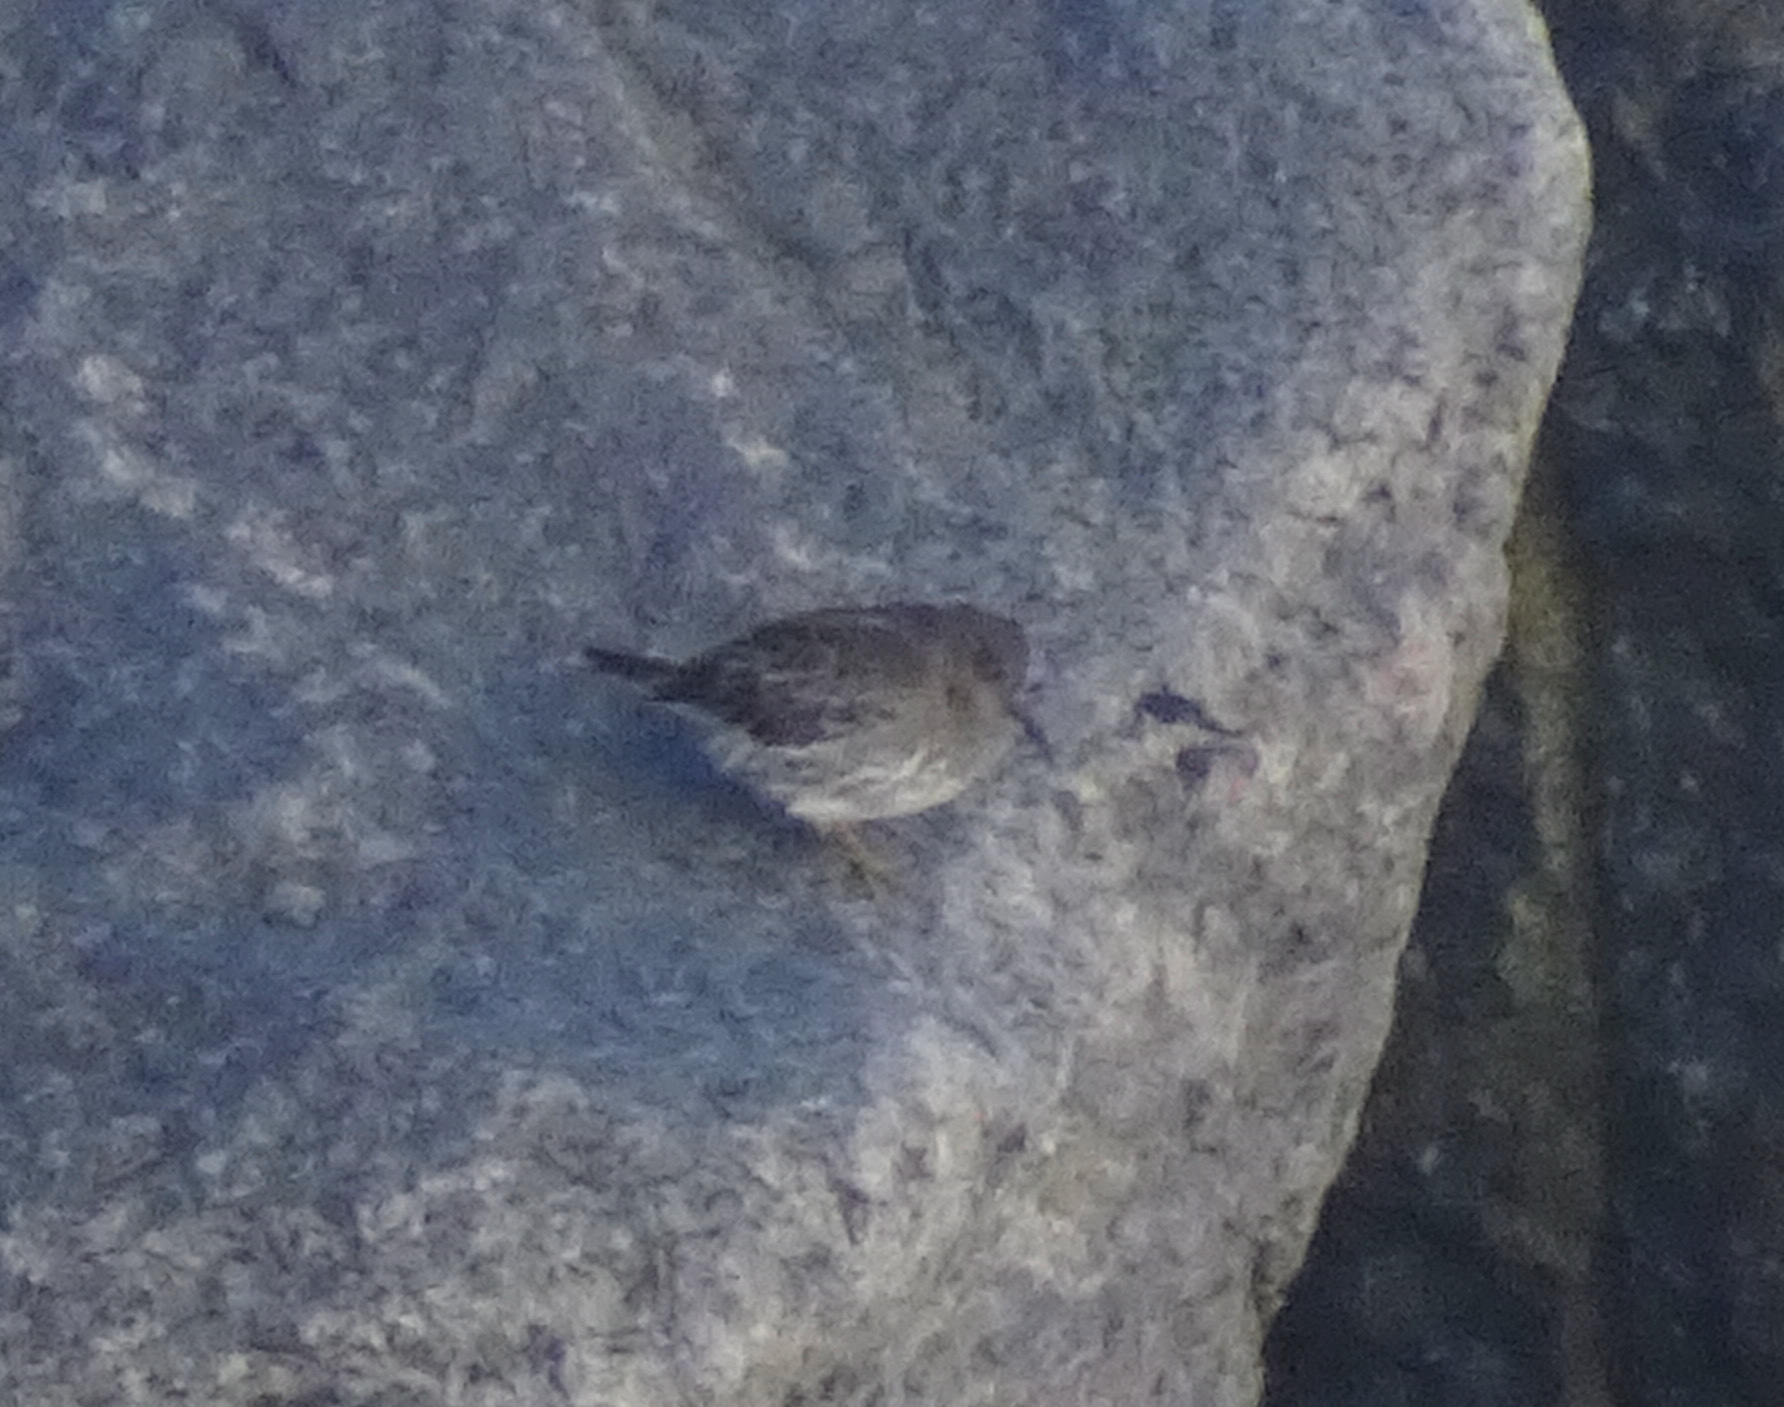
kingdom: Animalia
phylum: Chordata
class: Aves
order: Charadriiformes
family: Scolopacidae
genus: Calidris
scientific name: Calidris maritima
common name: Purple sandpiper
